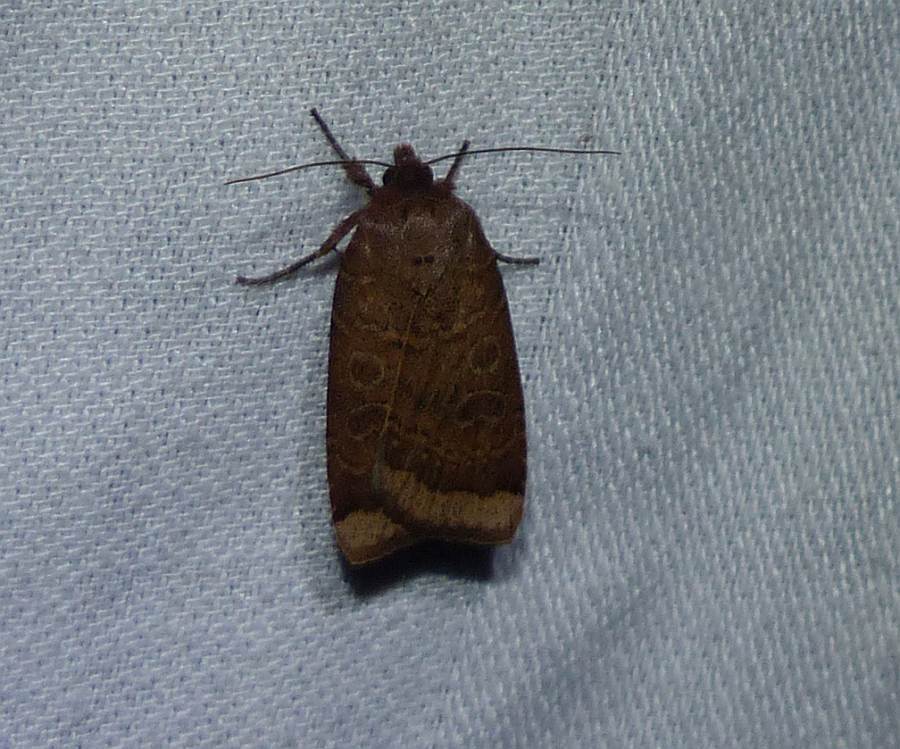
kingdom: Animalia
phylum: Arthropoda
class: Insecta
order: Lepidoptera
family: Noctuidae
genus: Abagrotis
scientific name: Abagrotis alternata
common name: Greater red dart
